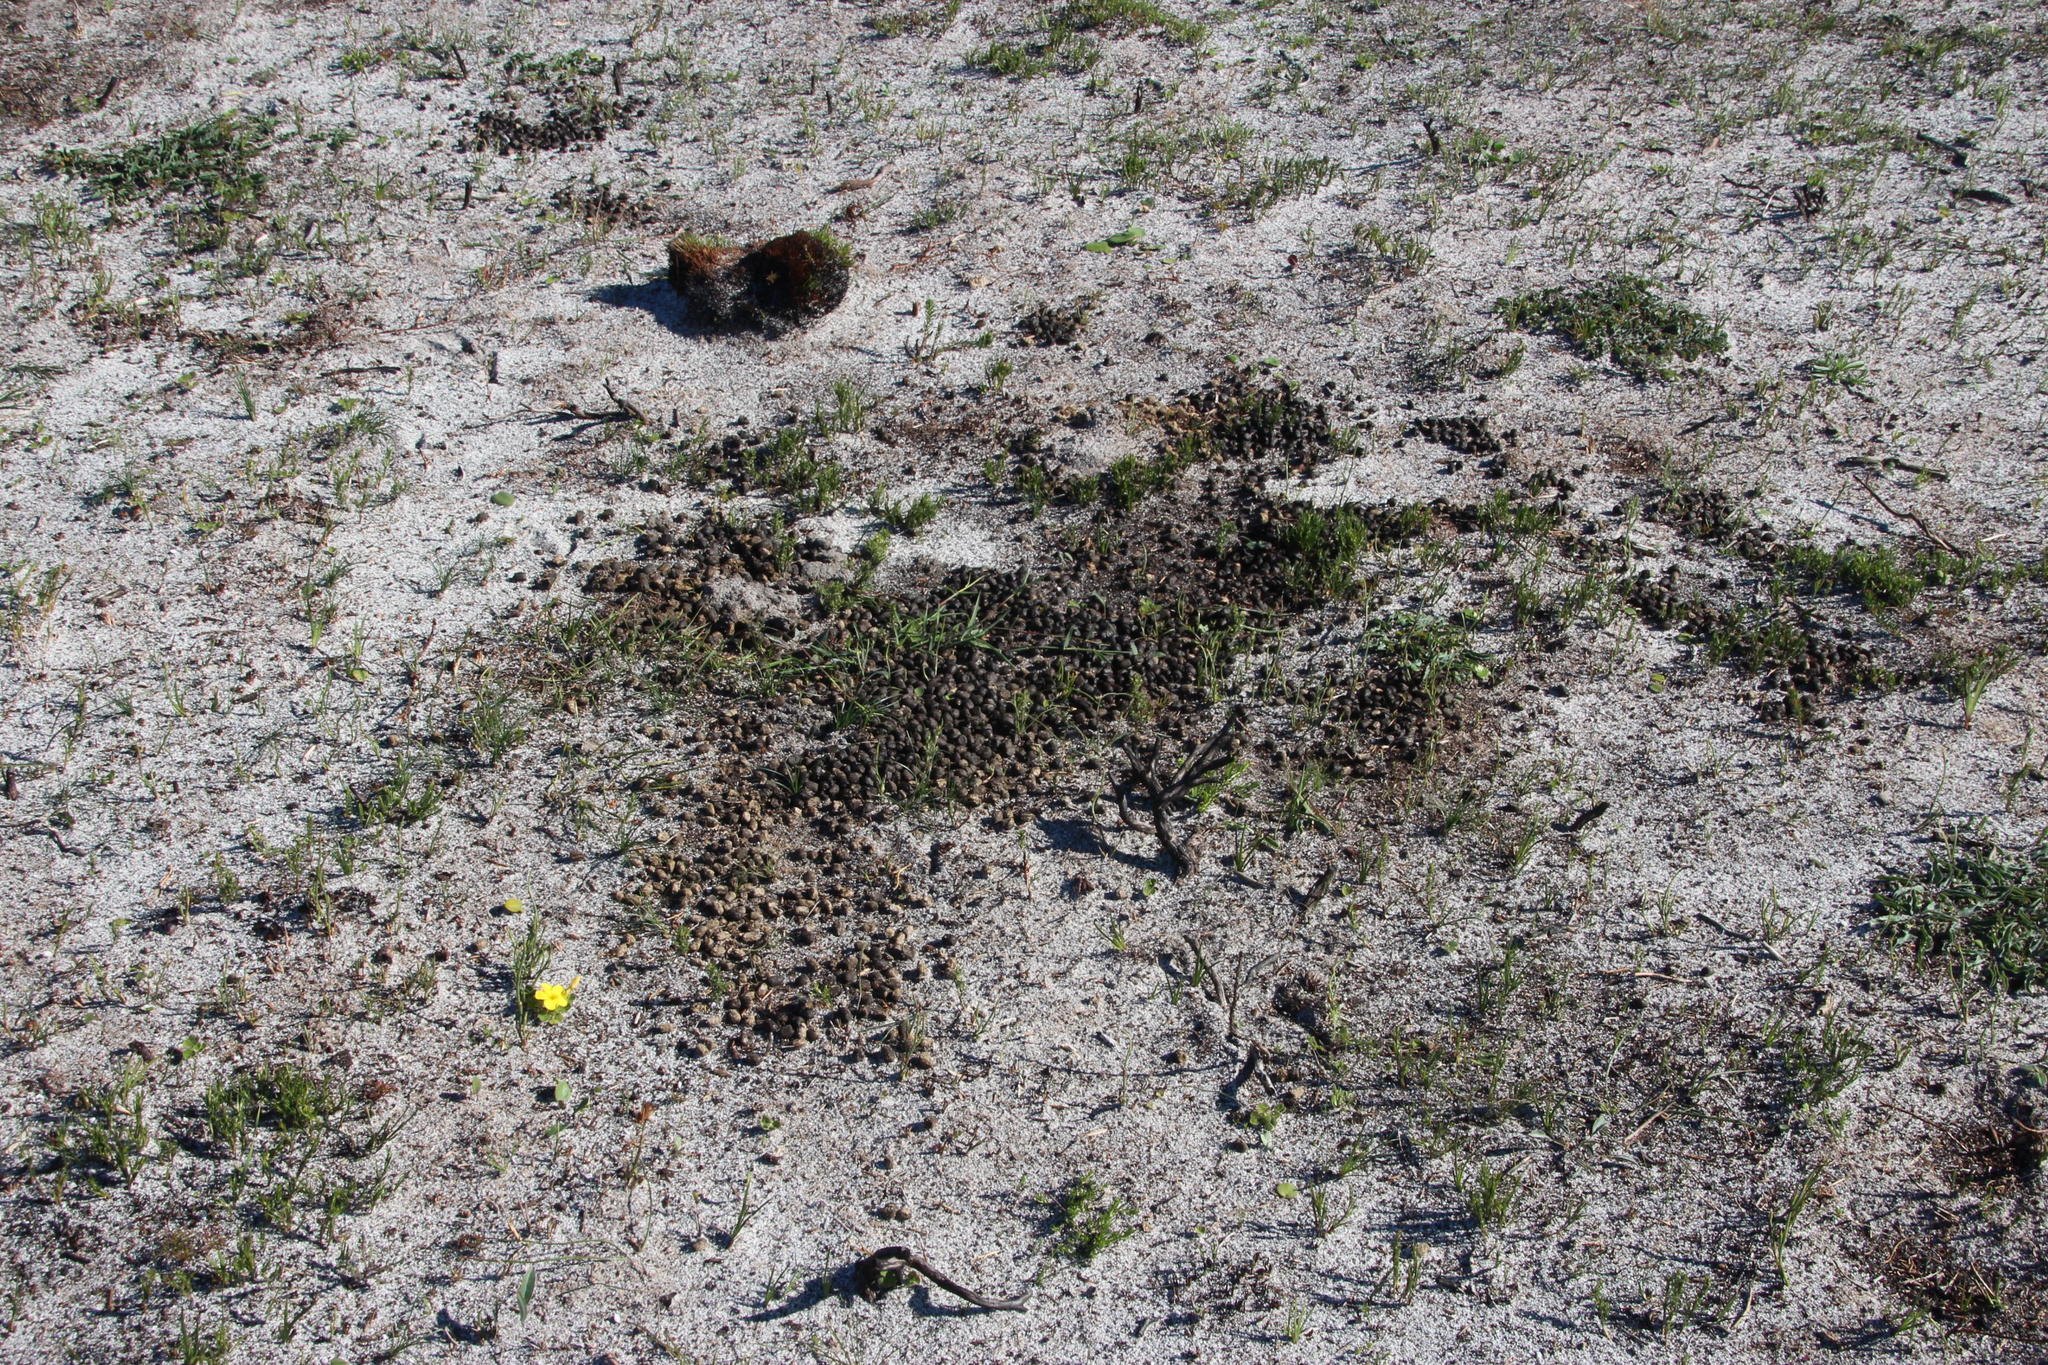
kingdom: Animalia
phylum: Chordata
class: Mammalia
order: Artiodactyla
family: Bovidae
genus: Damaliscus
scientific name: Damaliscus pygargus
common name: Bontebok
